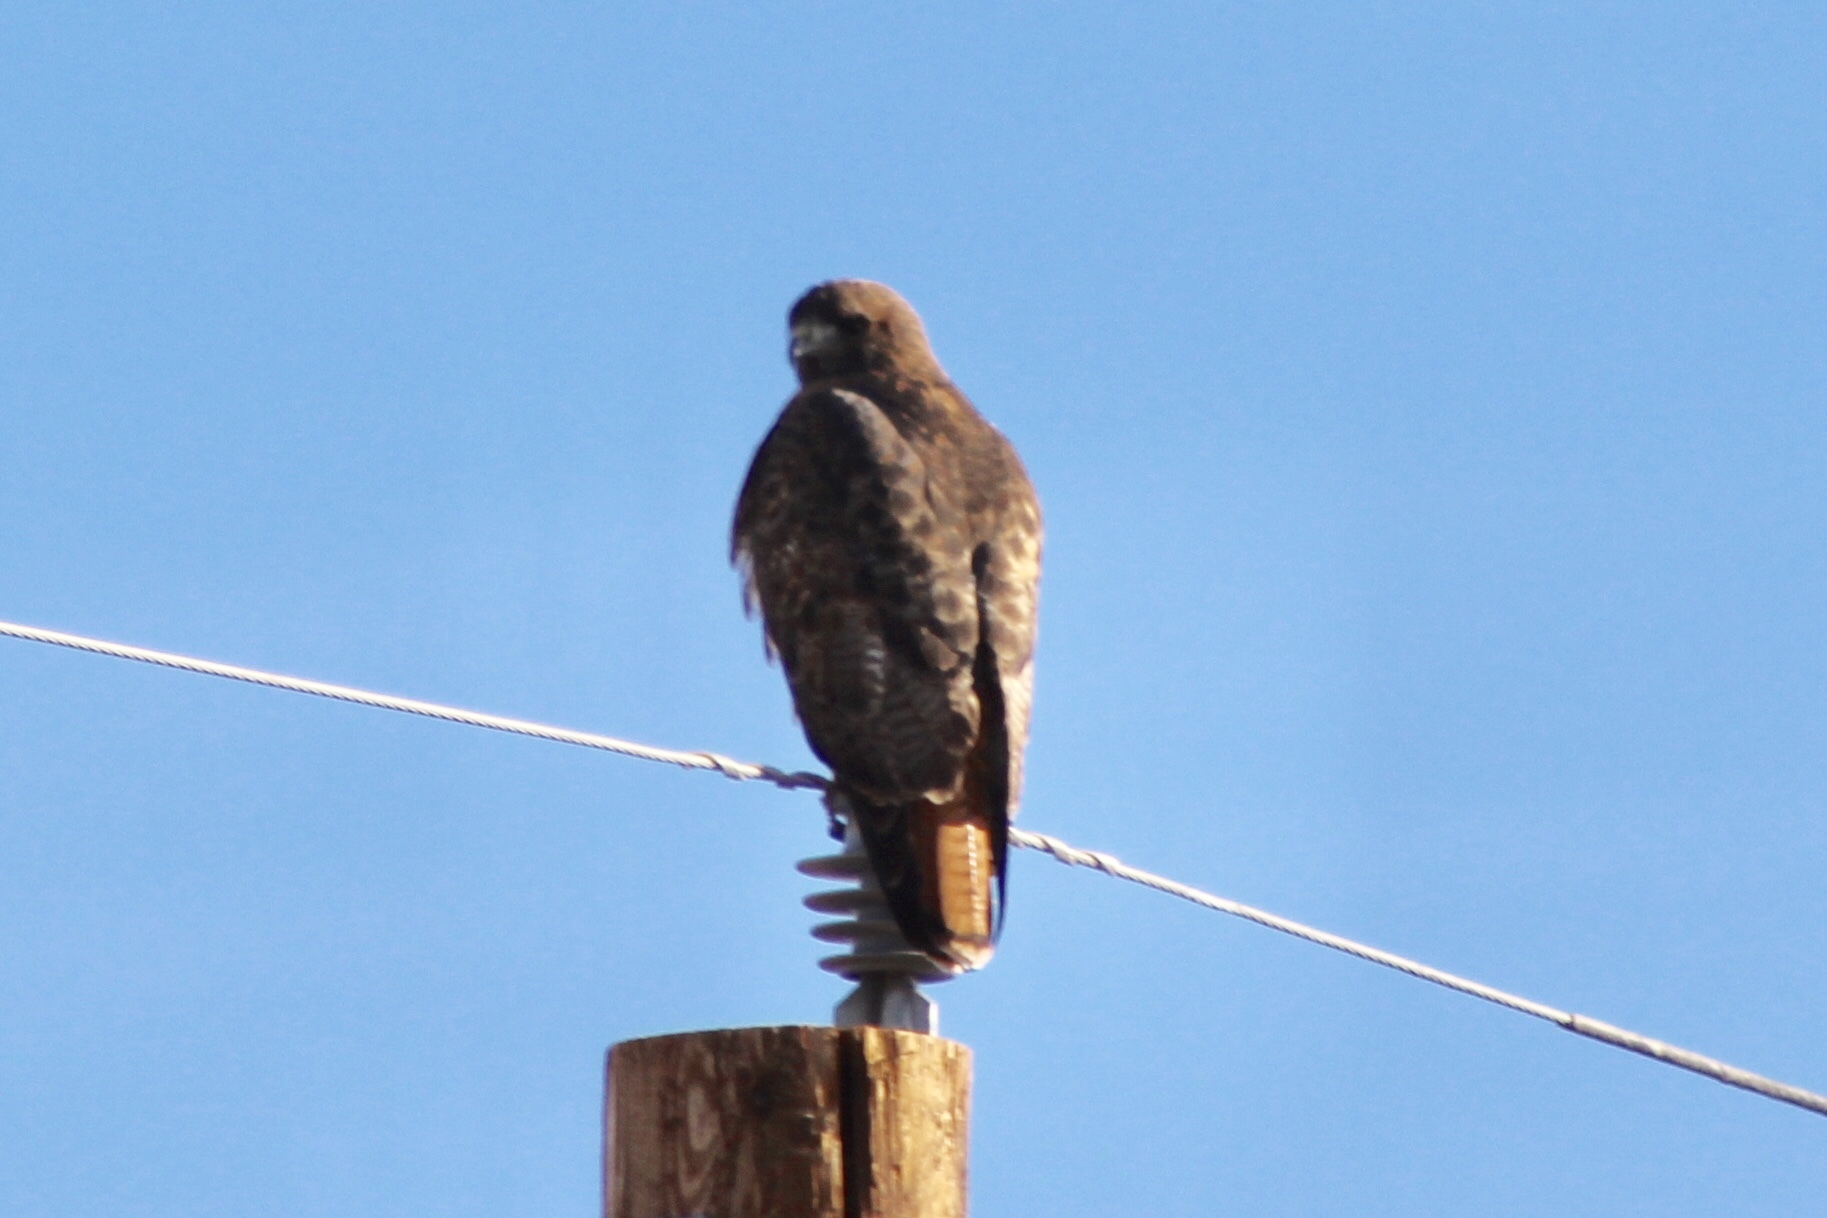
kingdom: Animalia
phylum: Chordata
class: Aves
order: Accipitriformes
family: Accipitridae
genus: Buteo
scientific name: Buteo jamaicensis
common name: Red-tailed hawk
